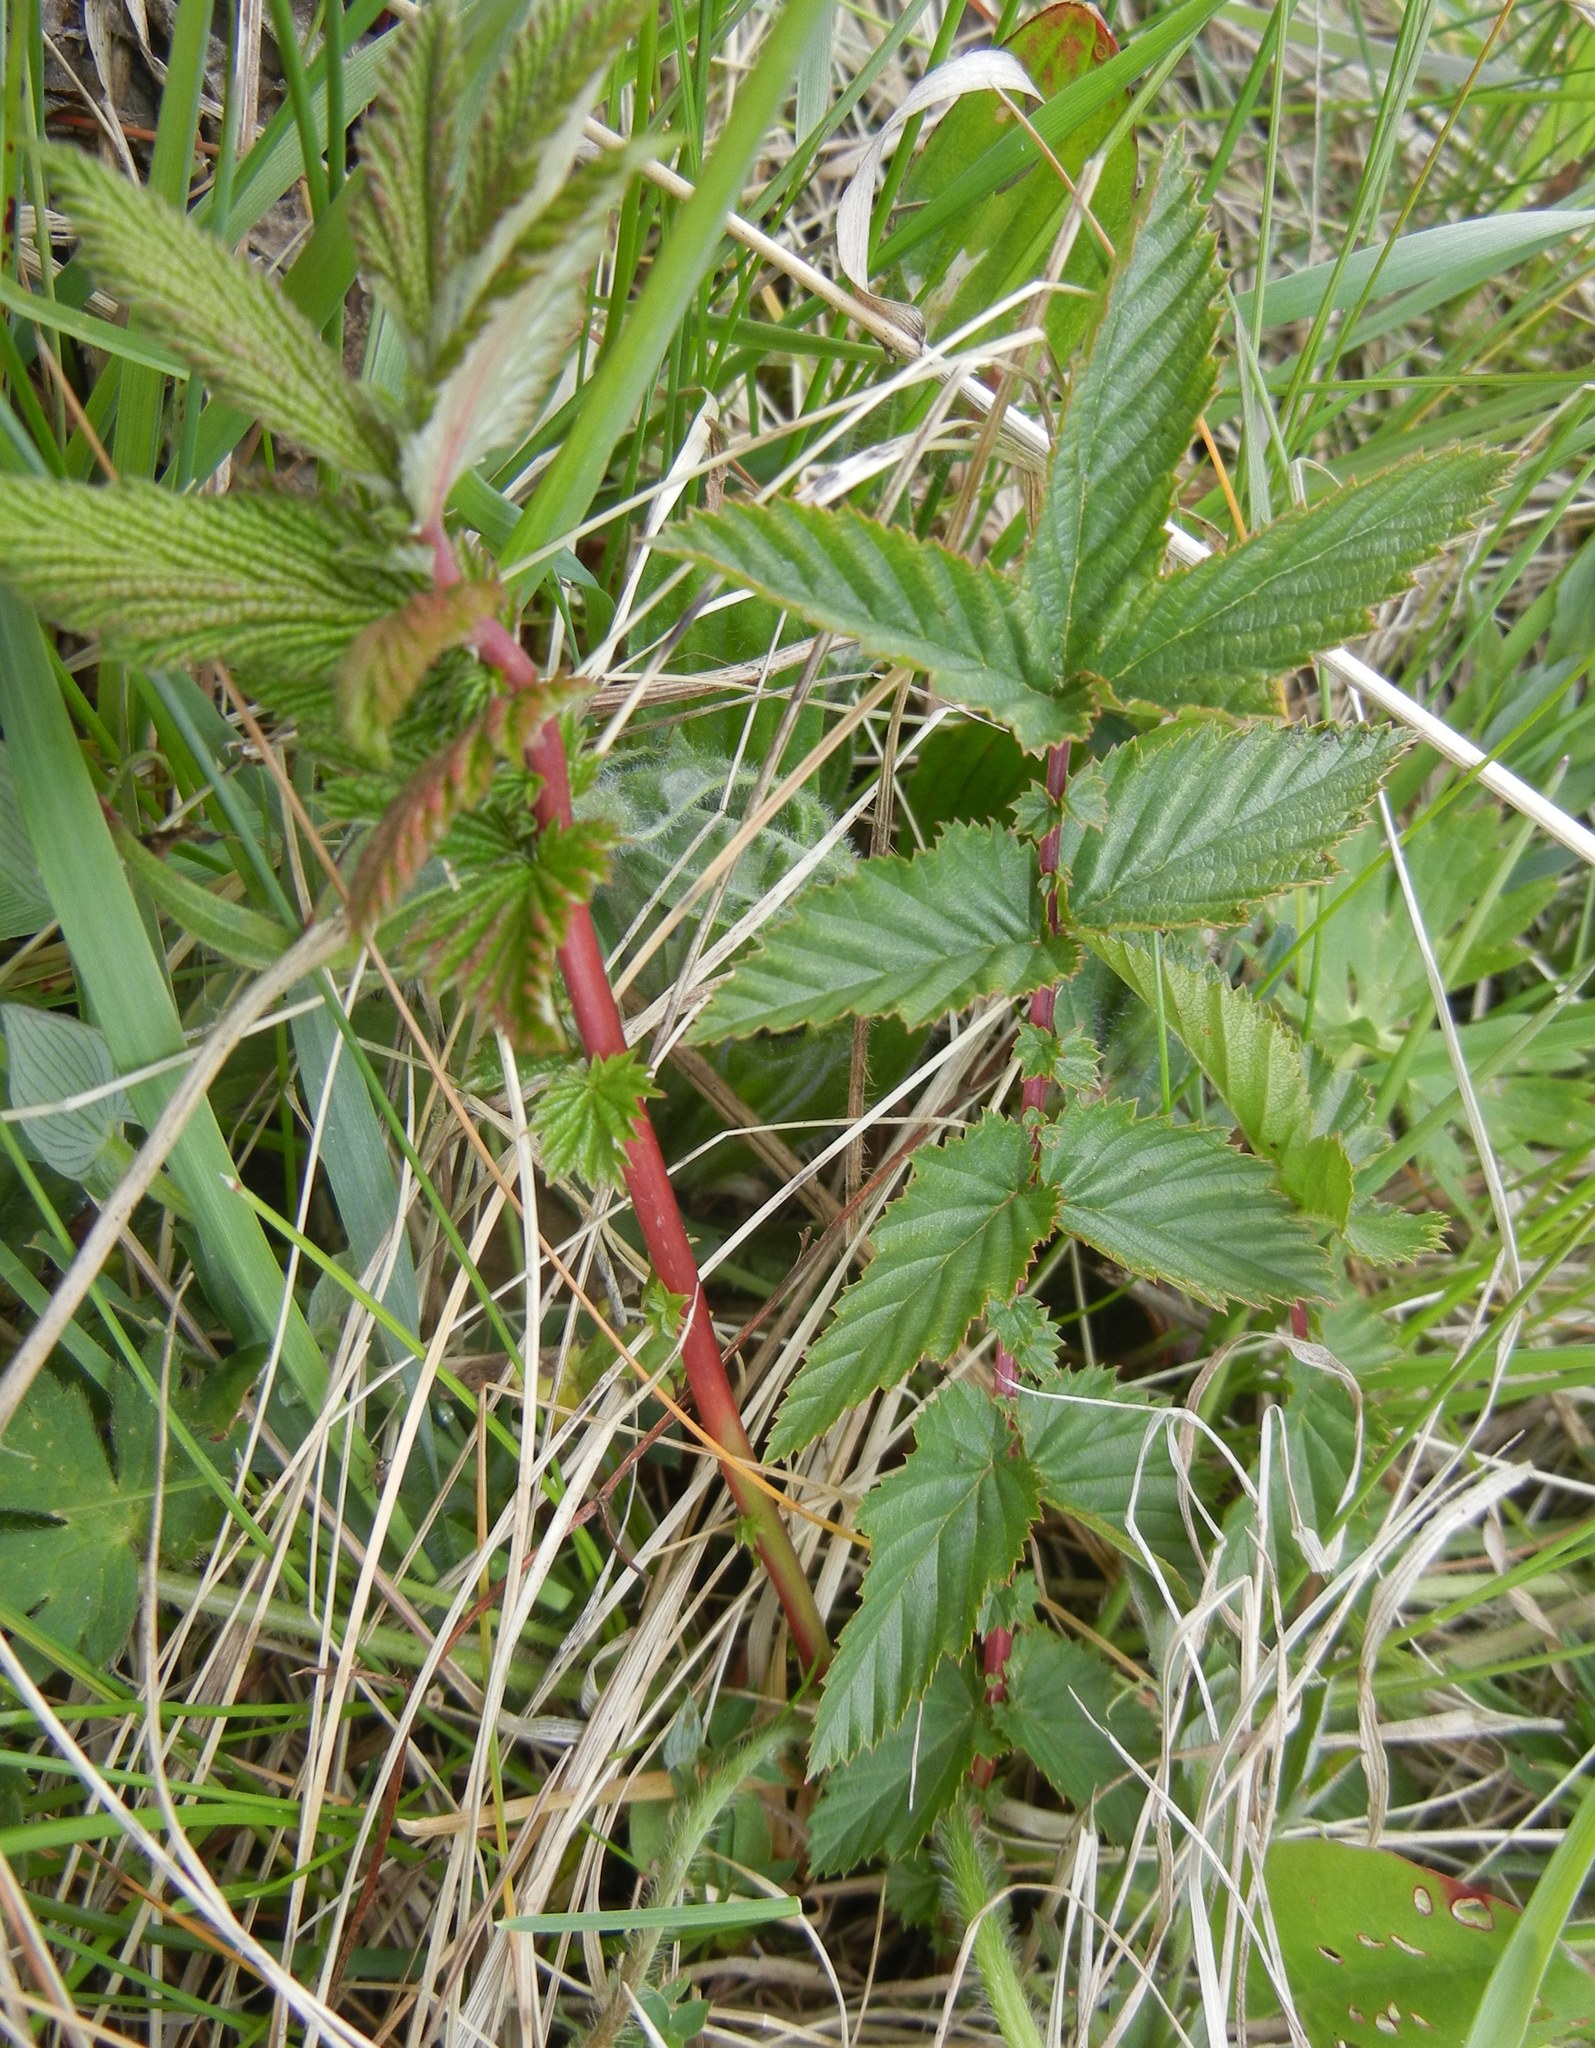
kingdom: Plantae
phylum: Tracheophyta
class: Magnoliopsida
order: Rosales
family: Rosaceae
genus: Filipendula
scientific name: Filipendula ulmaria
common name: Meadowsweet
